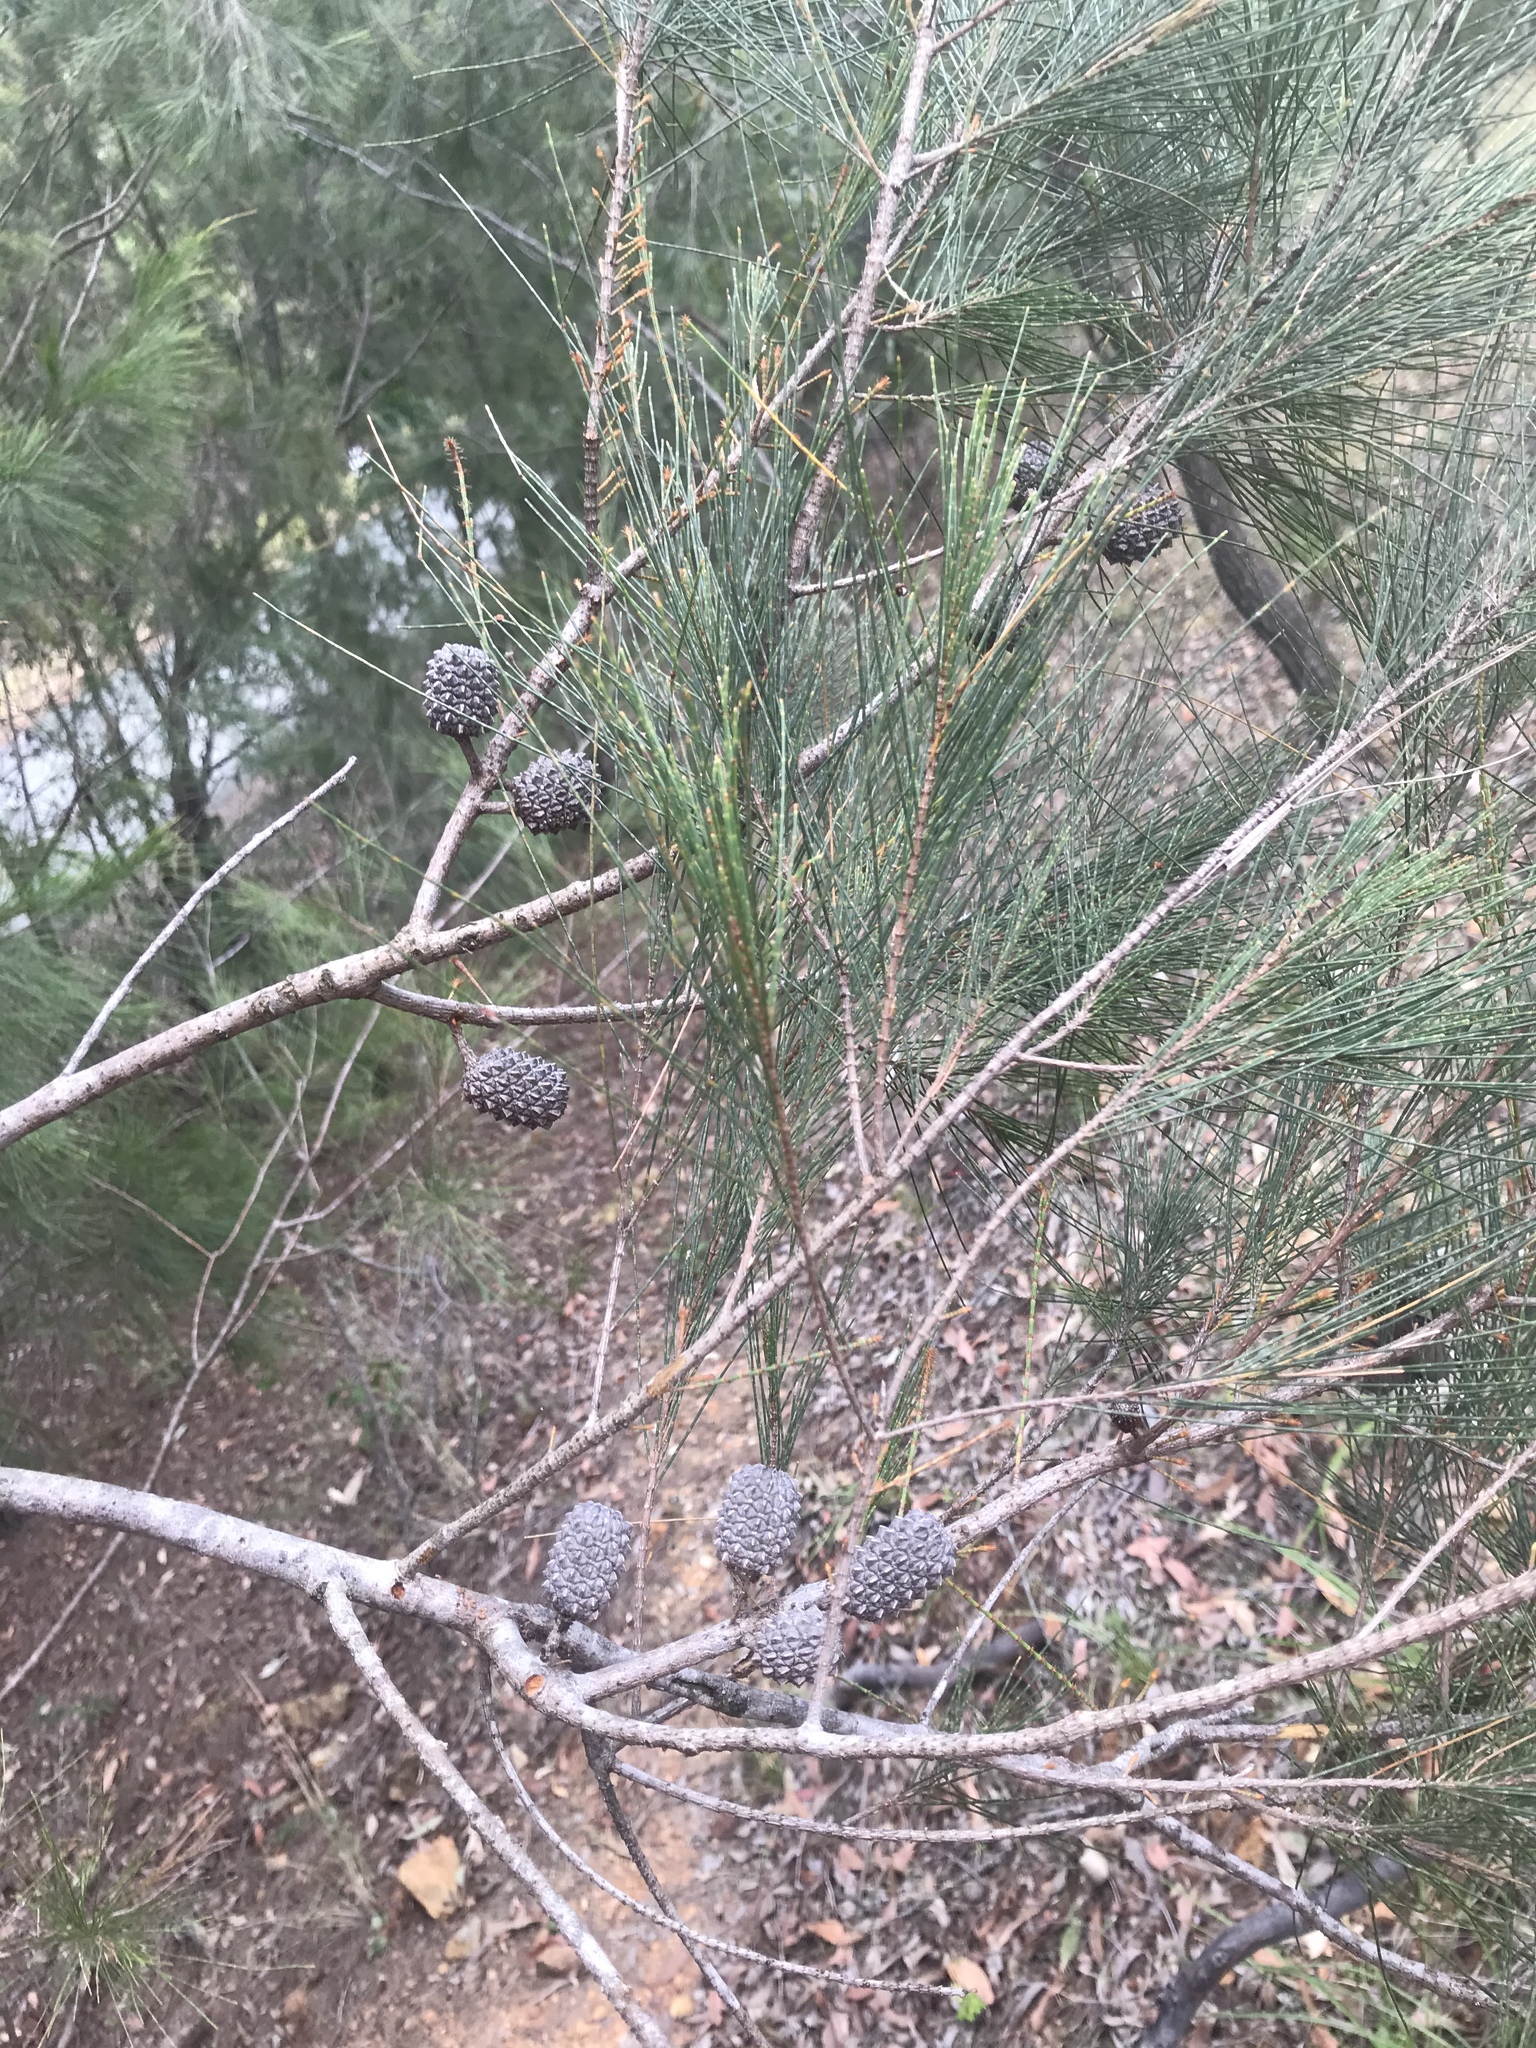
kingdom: Plantae
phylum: Tracheophyta
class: Magnoliopsida
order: Fagales
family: Casuarinaceae
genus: Allocasuarina
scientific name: Allocasuarina littoralis
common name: Black she-oak
